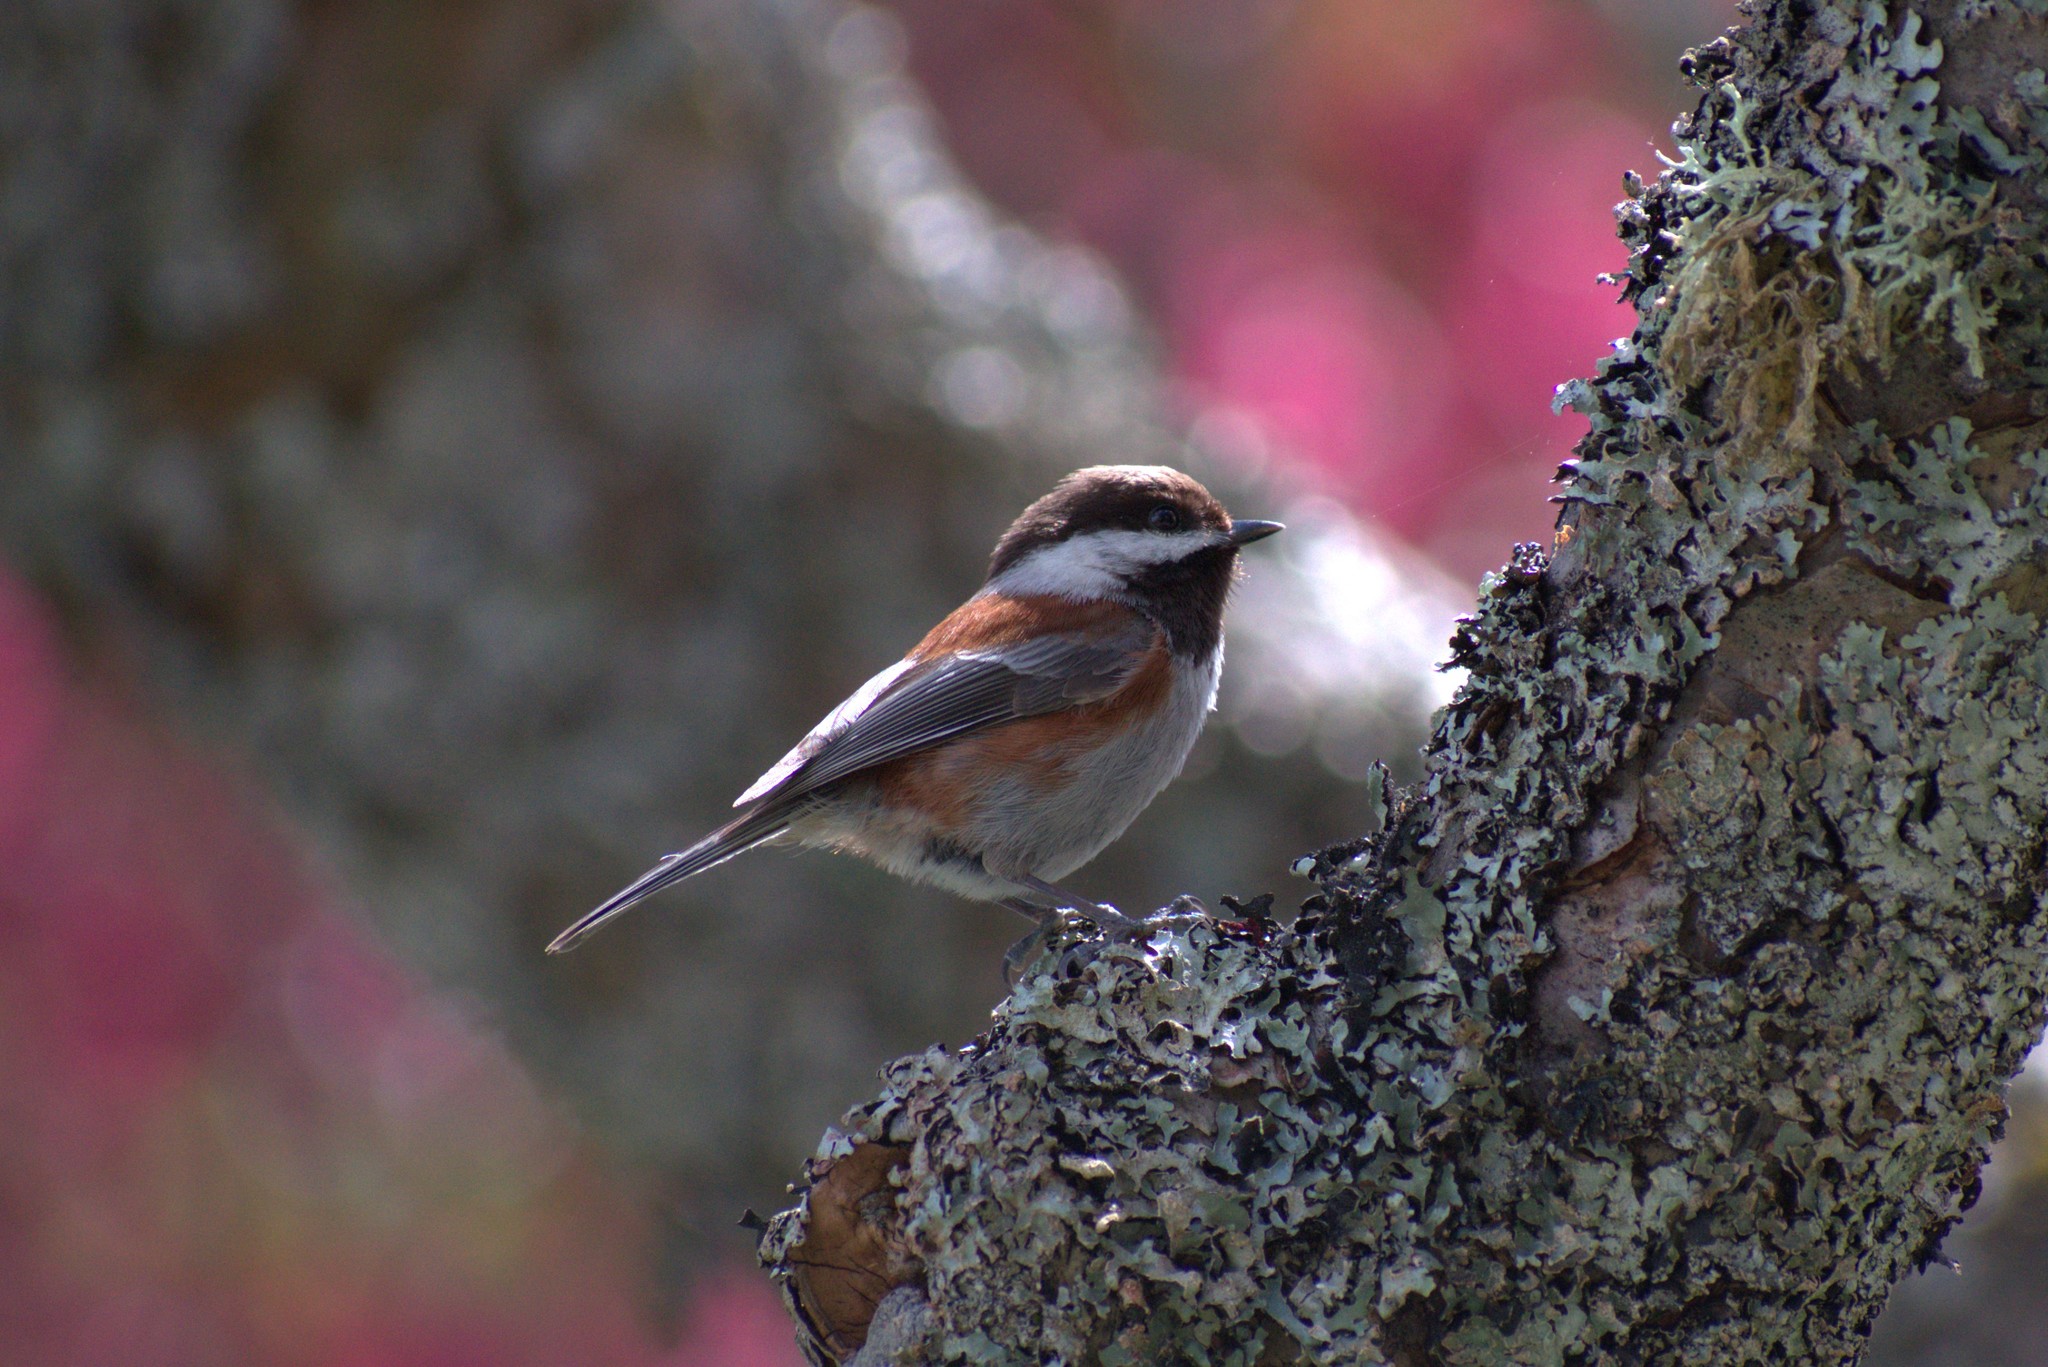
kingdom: Animalia
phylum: Chordata
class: Aves
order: Passeriformes
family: Paridae
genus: Poecile
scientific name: Poecile rufescens
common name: Chestnut-backed chickadee
